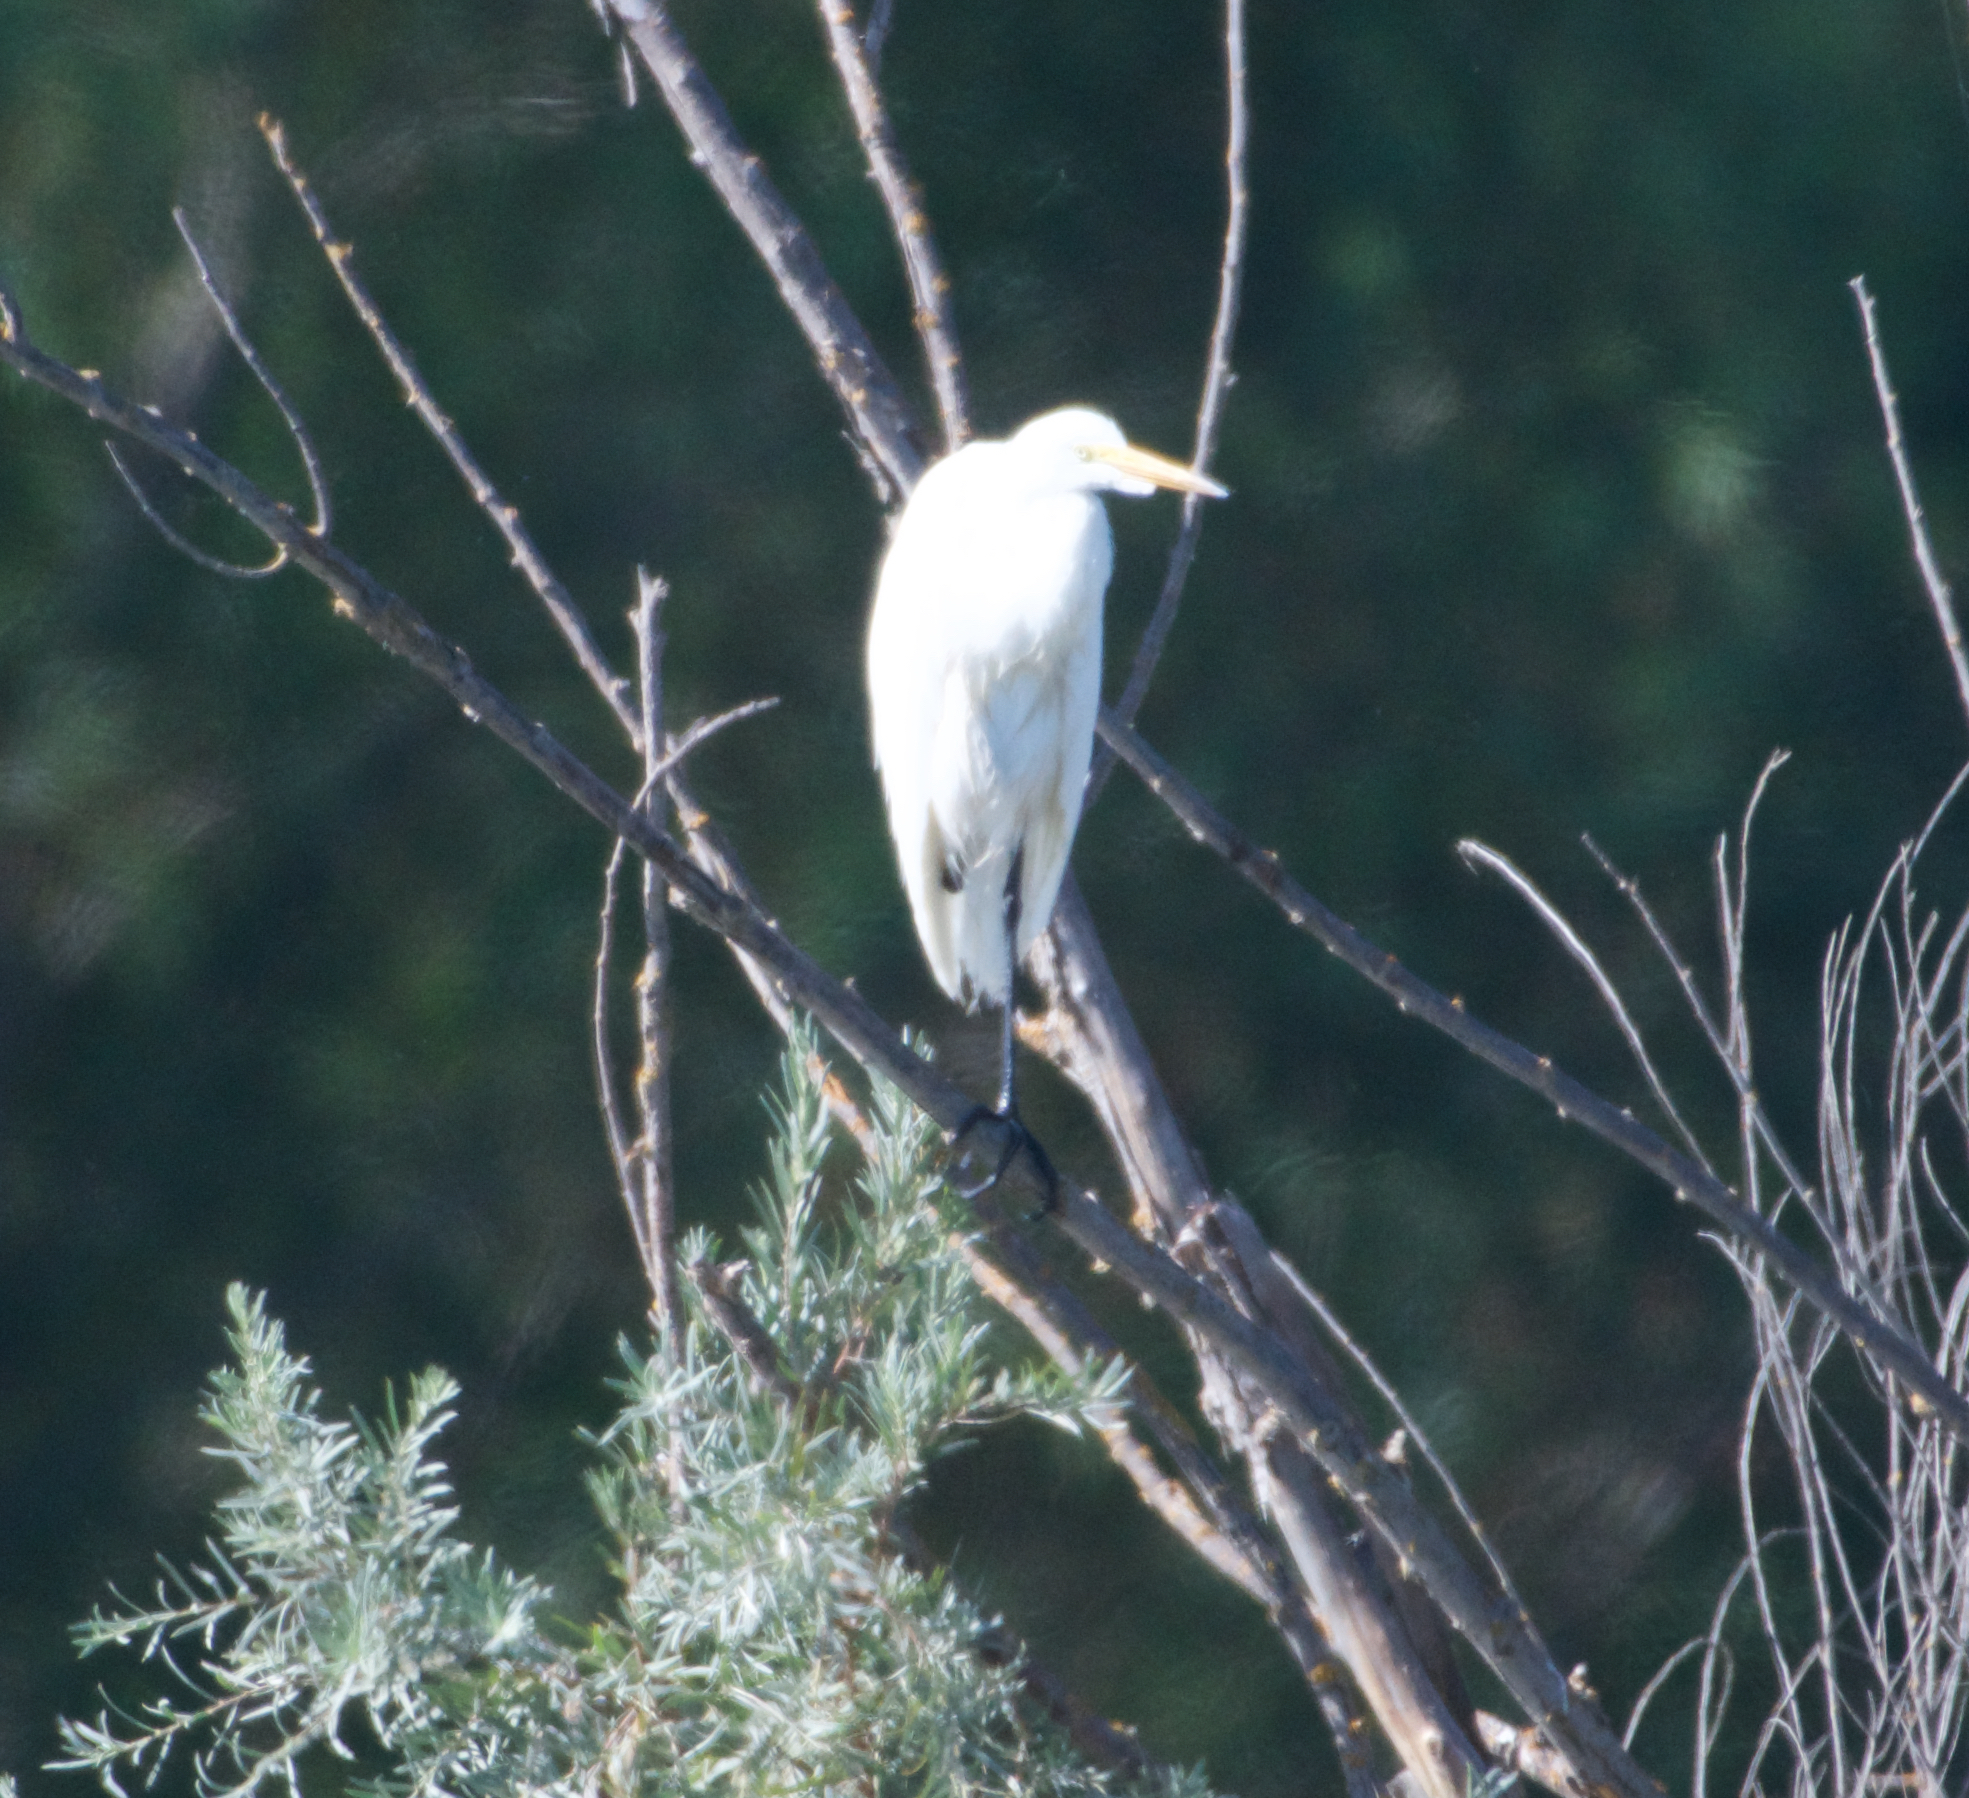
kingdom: Animalia
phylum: Chordata
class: Aves
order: Pelecaniformes
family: Ardeidae
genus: Ardea
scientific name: Ardea alba
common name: Great egret
